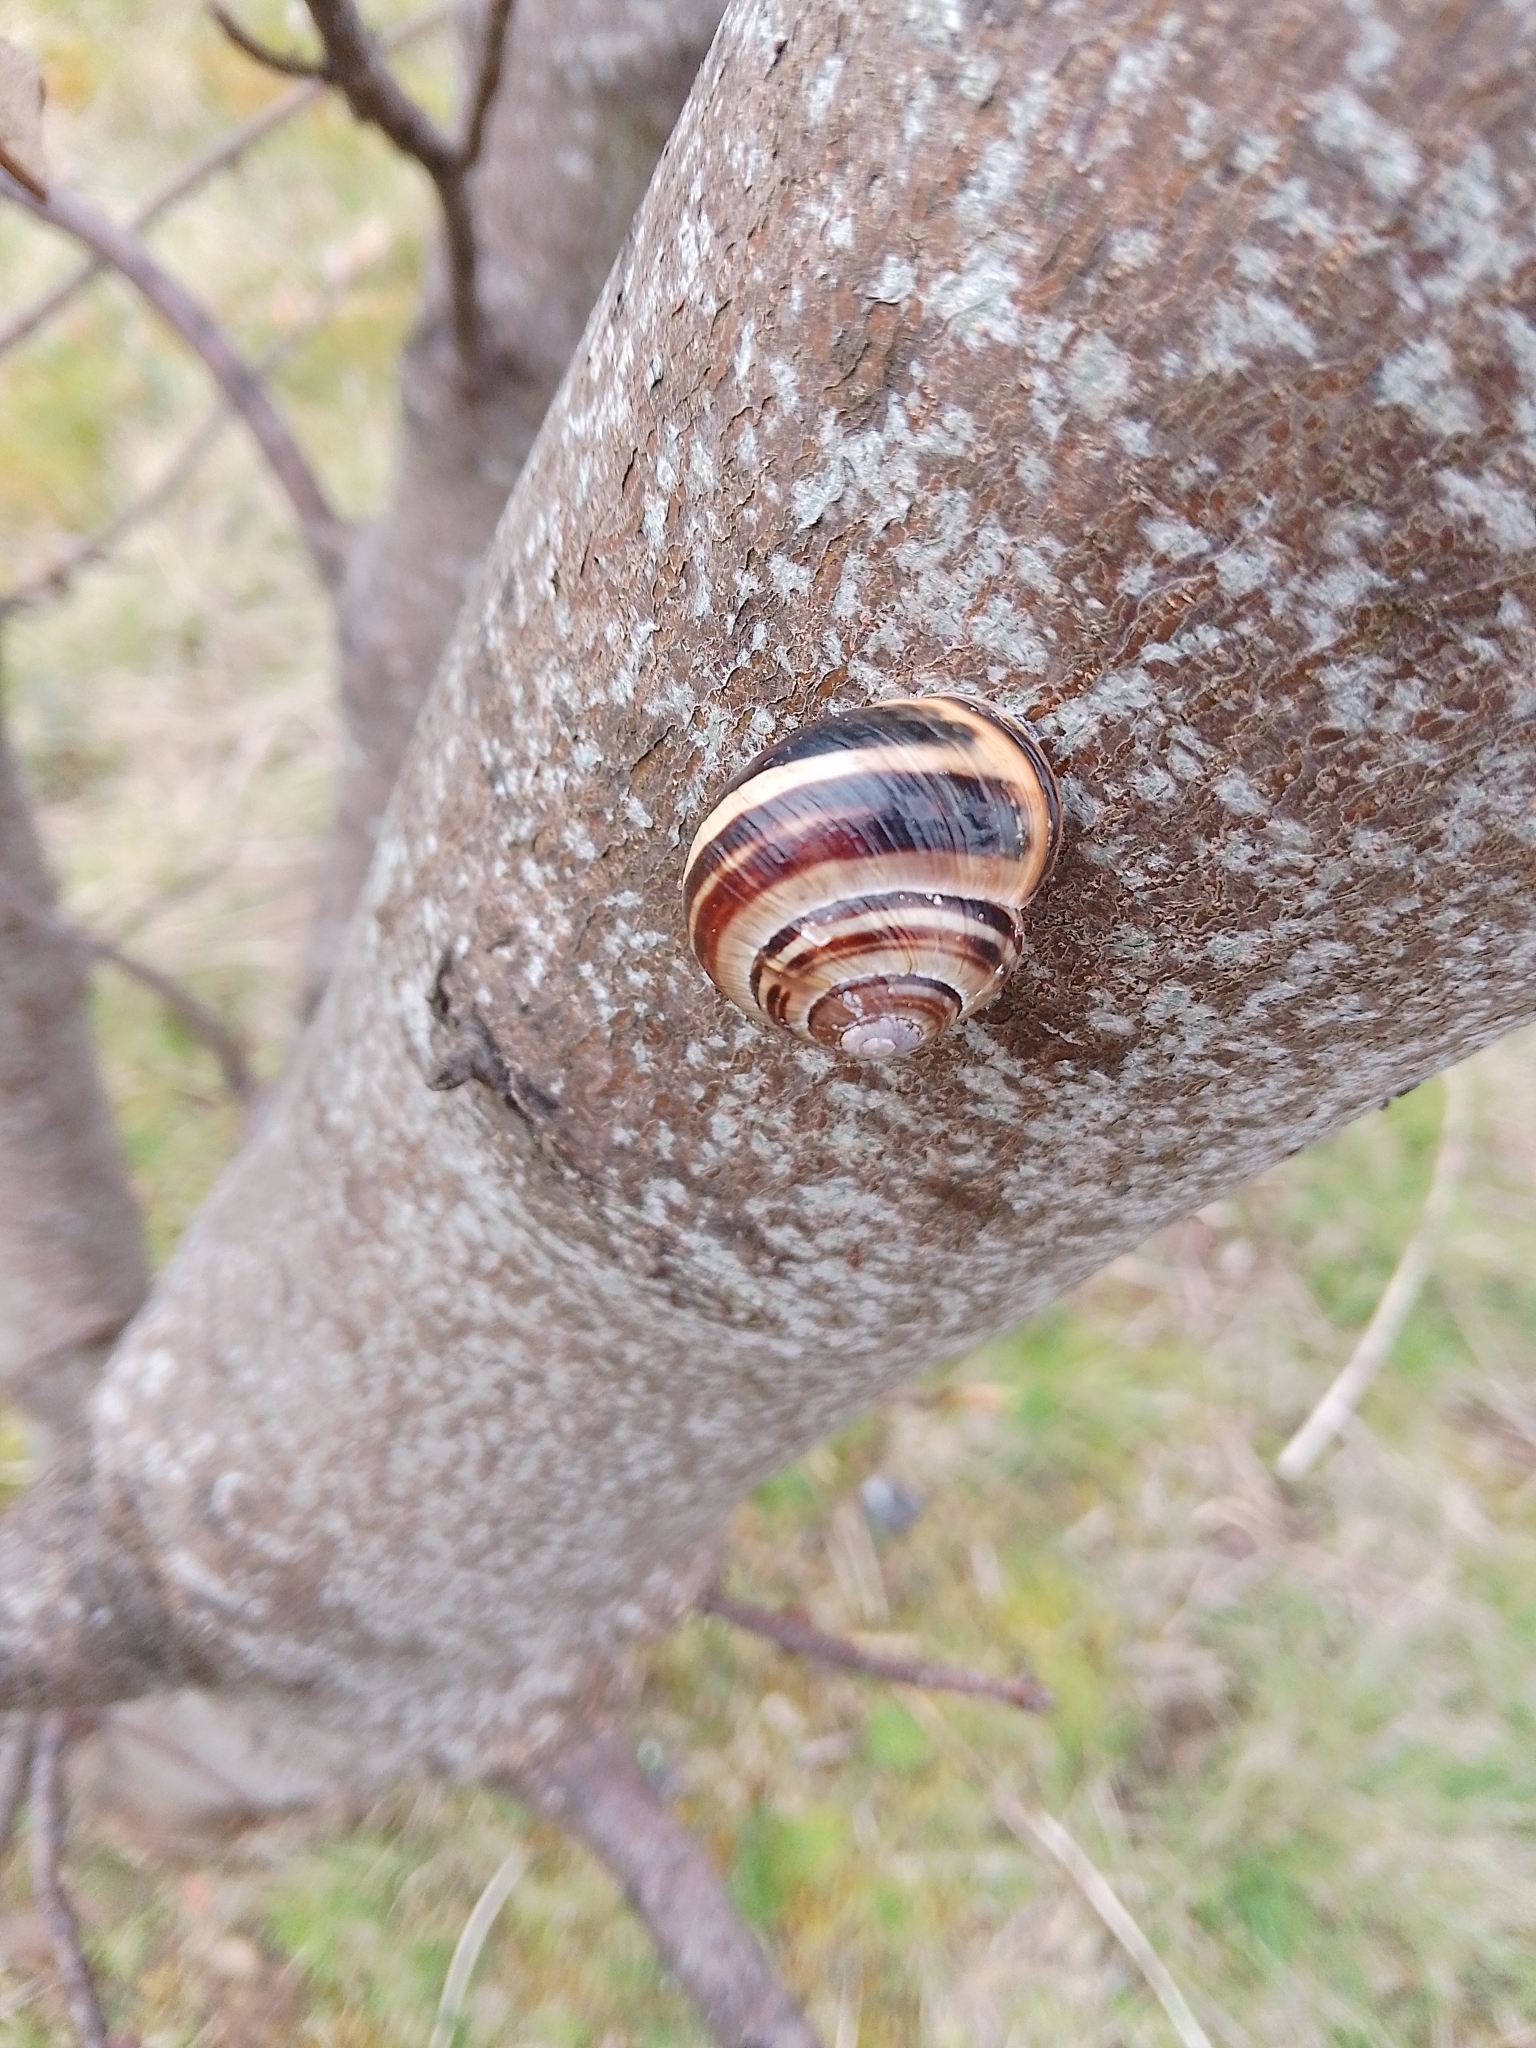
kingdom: Animalia
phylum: Mollusca
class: Gastropoda
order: Stylommatophora
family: Helicidae
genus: Cepaea
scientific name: Cepaea nemoralis
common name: Grovesnail
